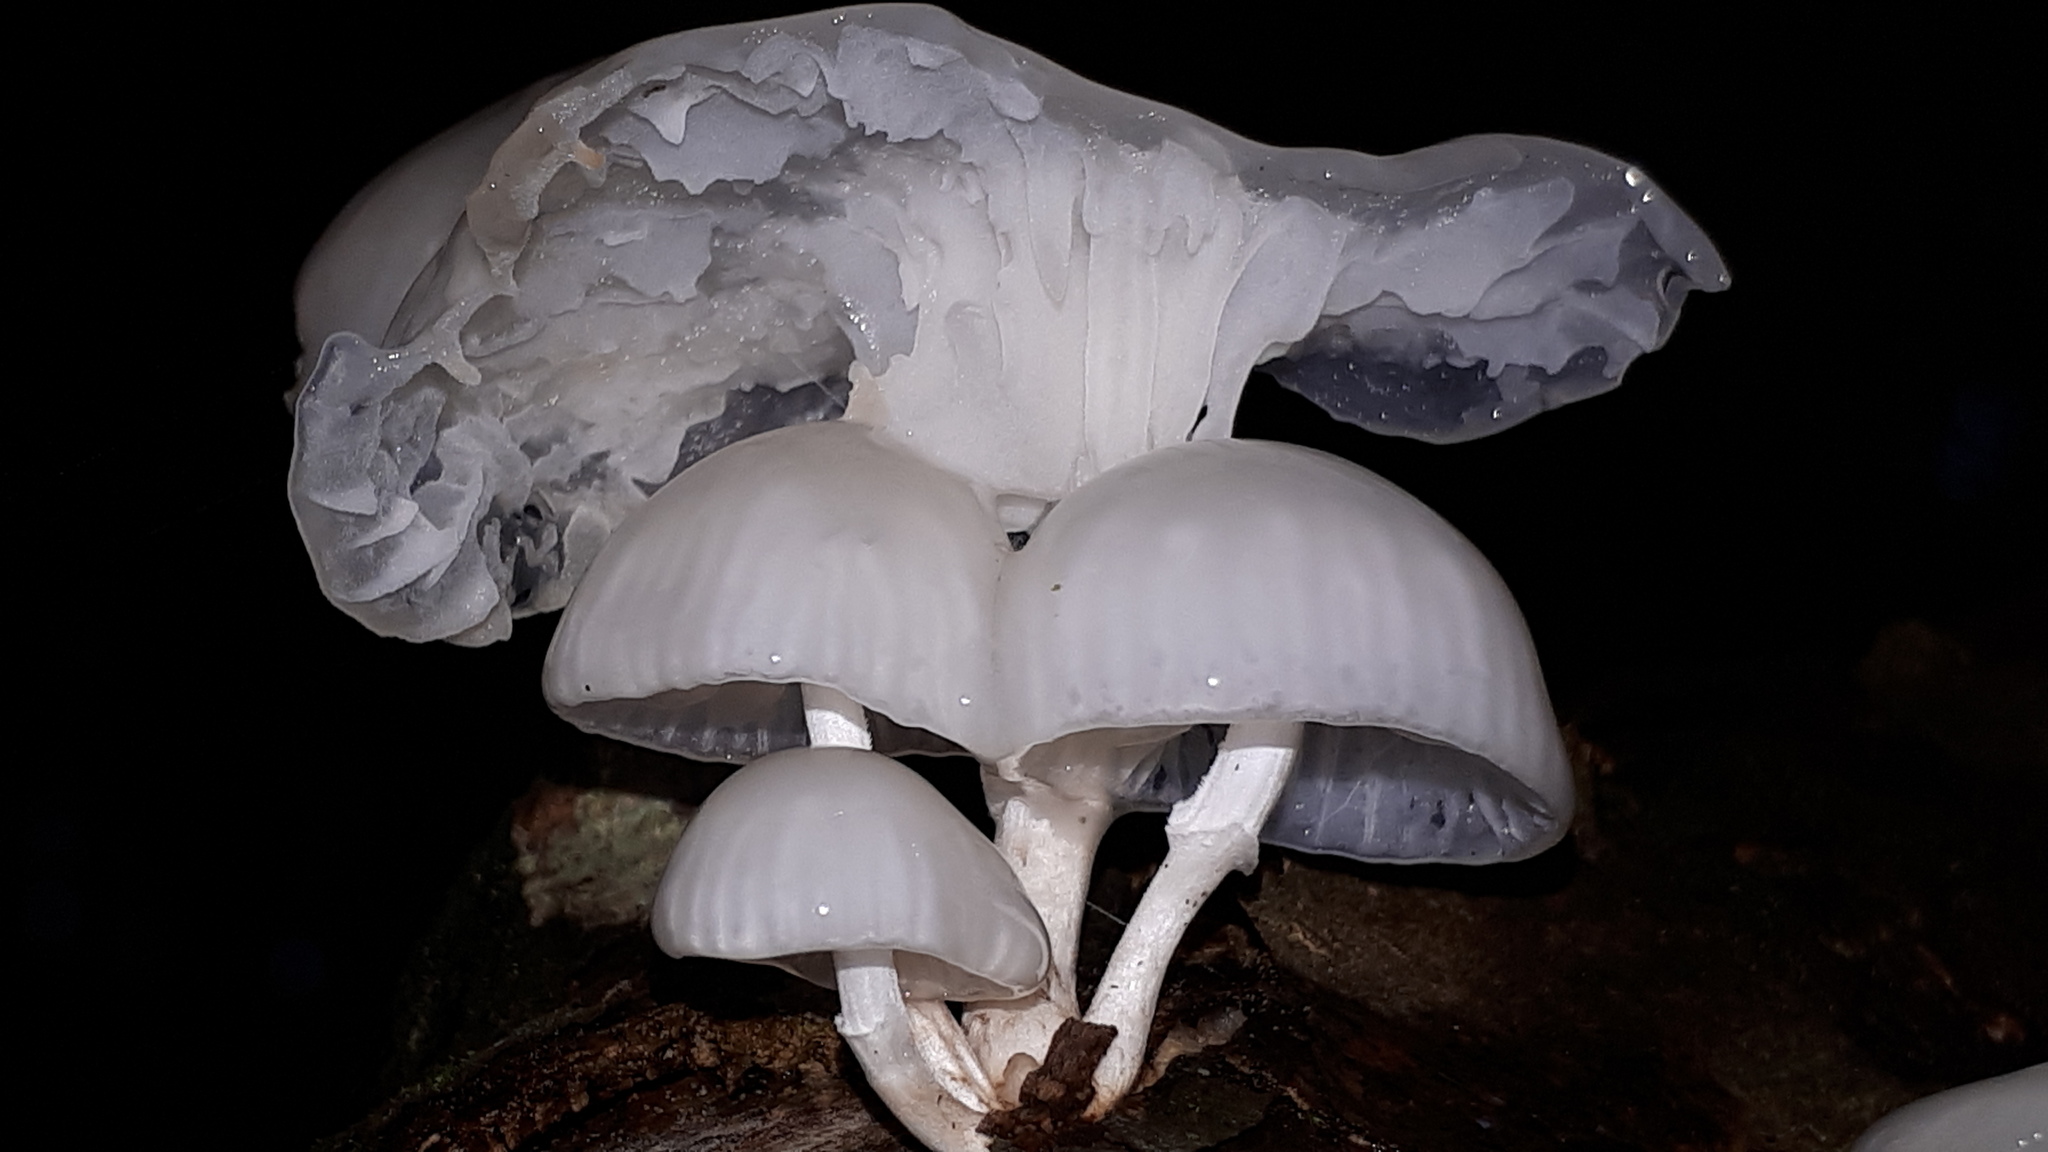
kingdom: Fungi
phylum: Basidiomycota
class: Agaricomycetes
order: Agaricales
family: Physalacriaceae
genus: Mucidula
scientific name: Mucidula mucida
